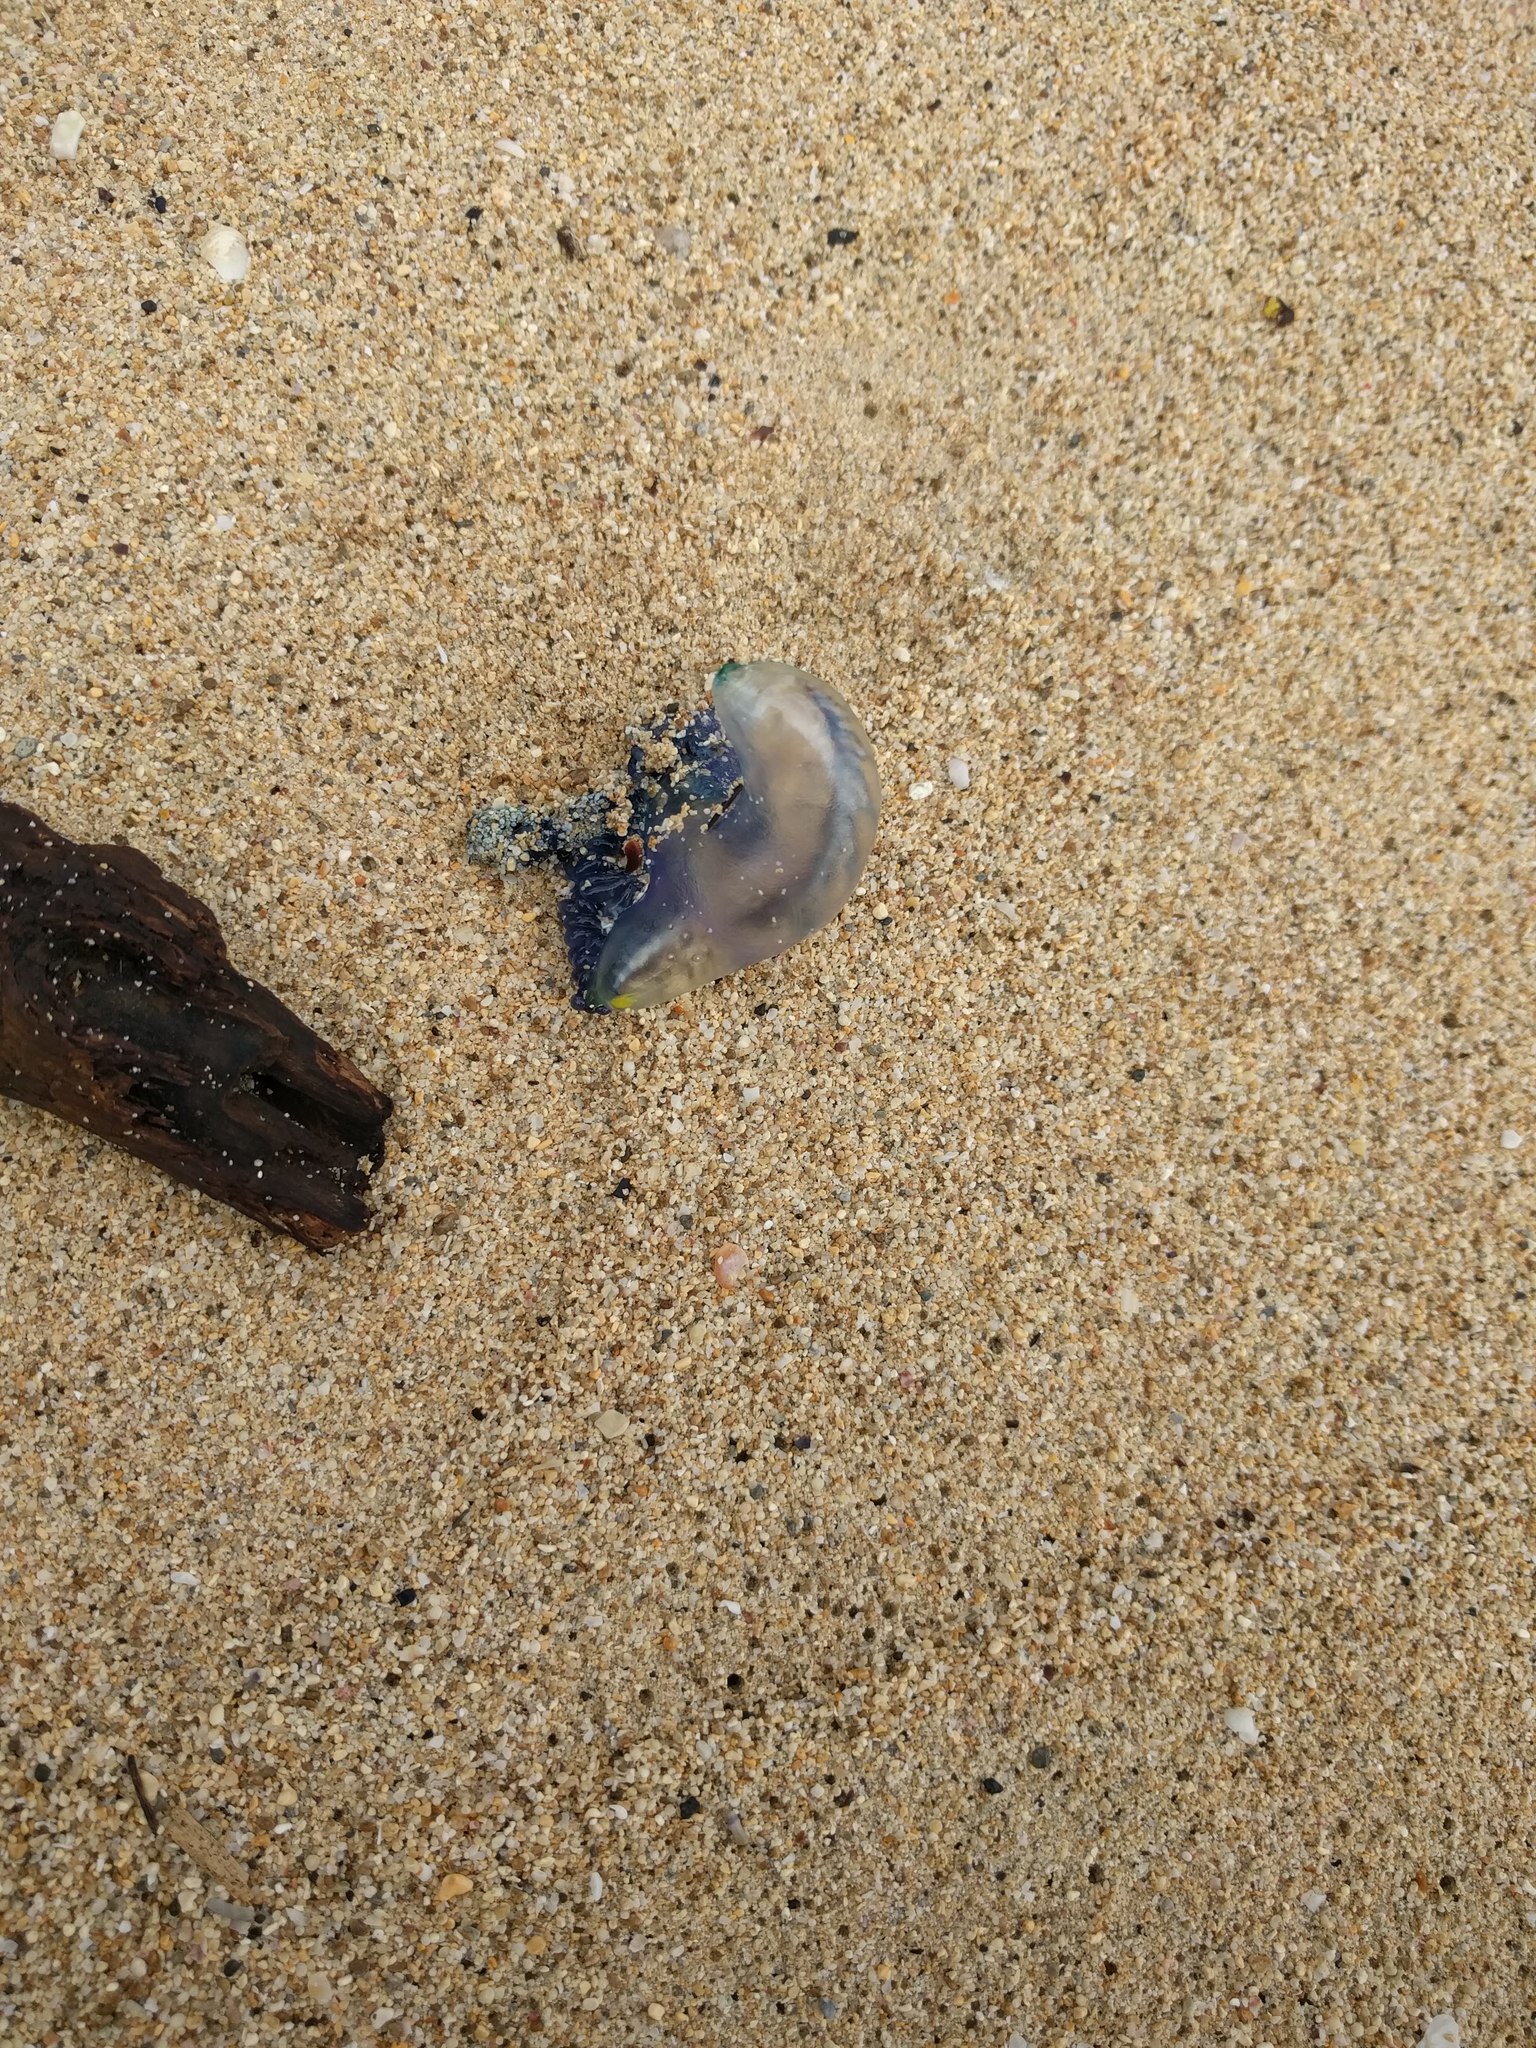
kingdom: Animalia
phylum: Cnidaria
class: Hydrozoa
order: Siphonophorae
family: Physaliidae
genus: Physalia
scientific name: Physalia physalis
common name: Portuguese man-of-war
